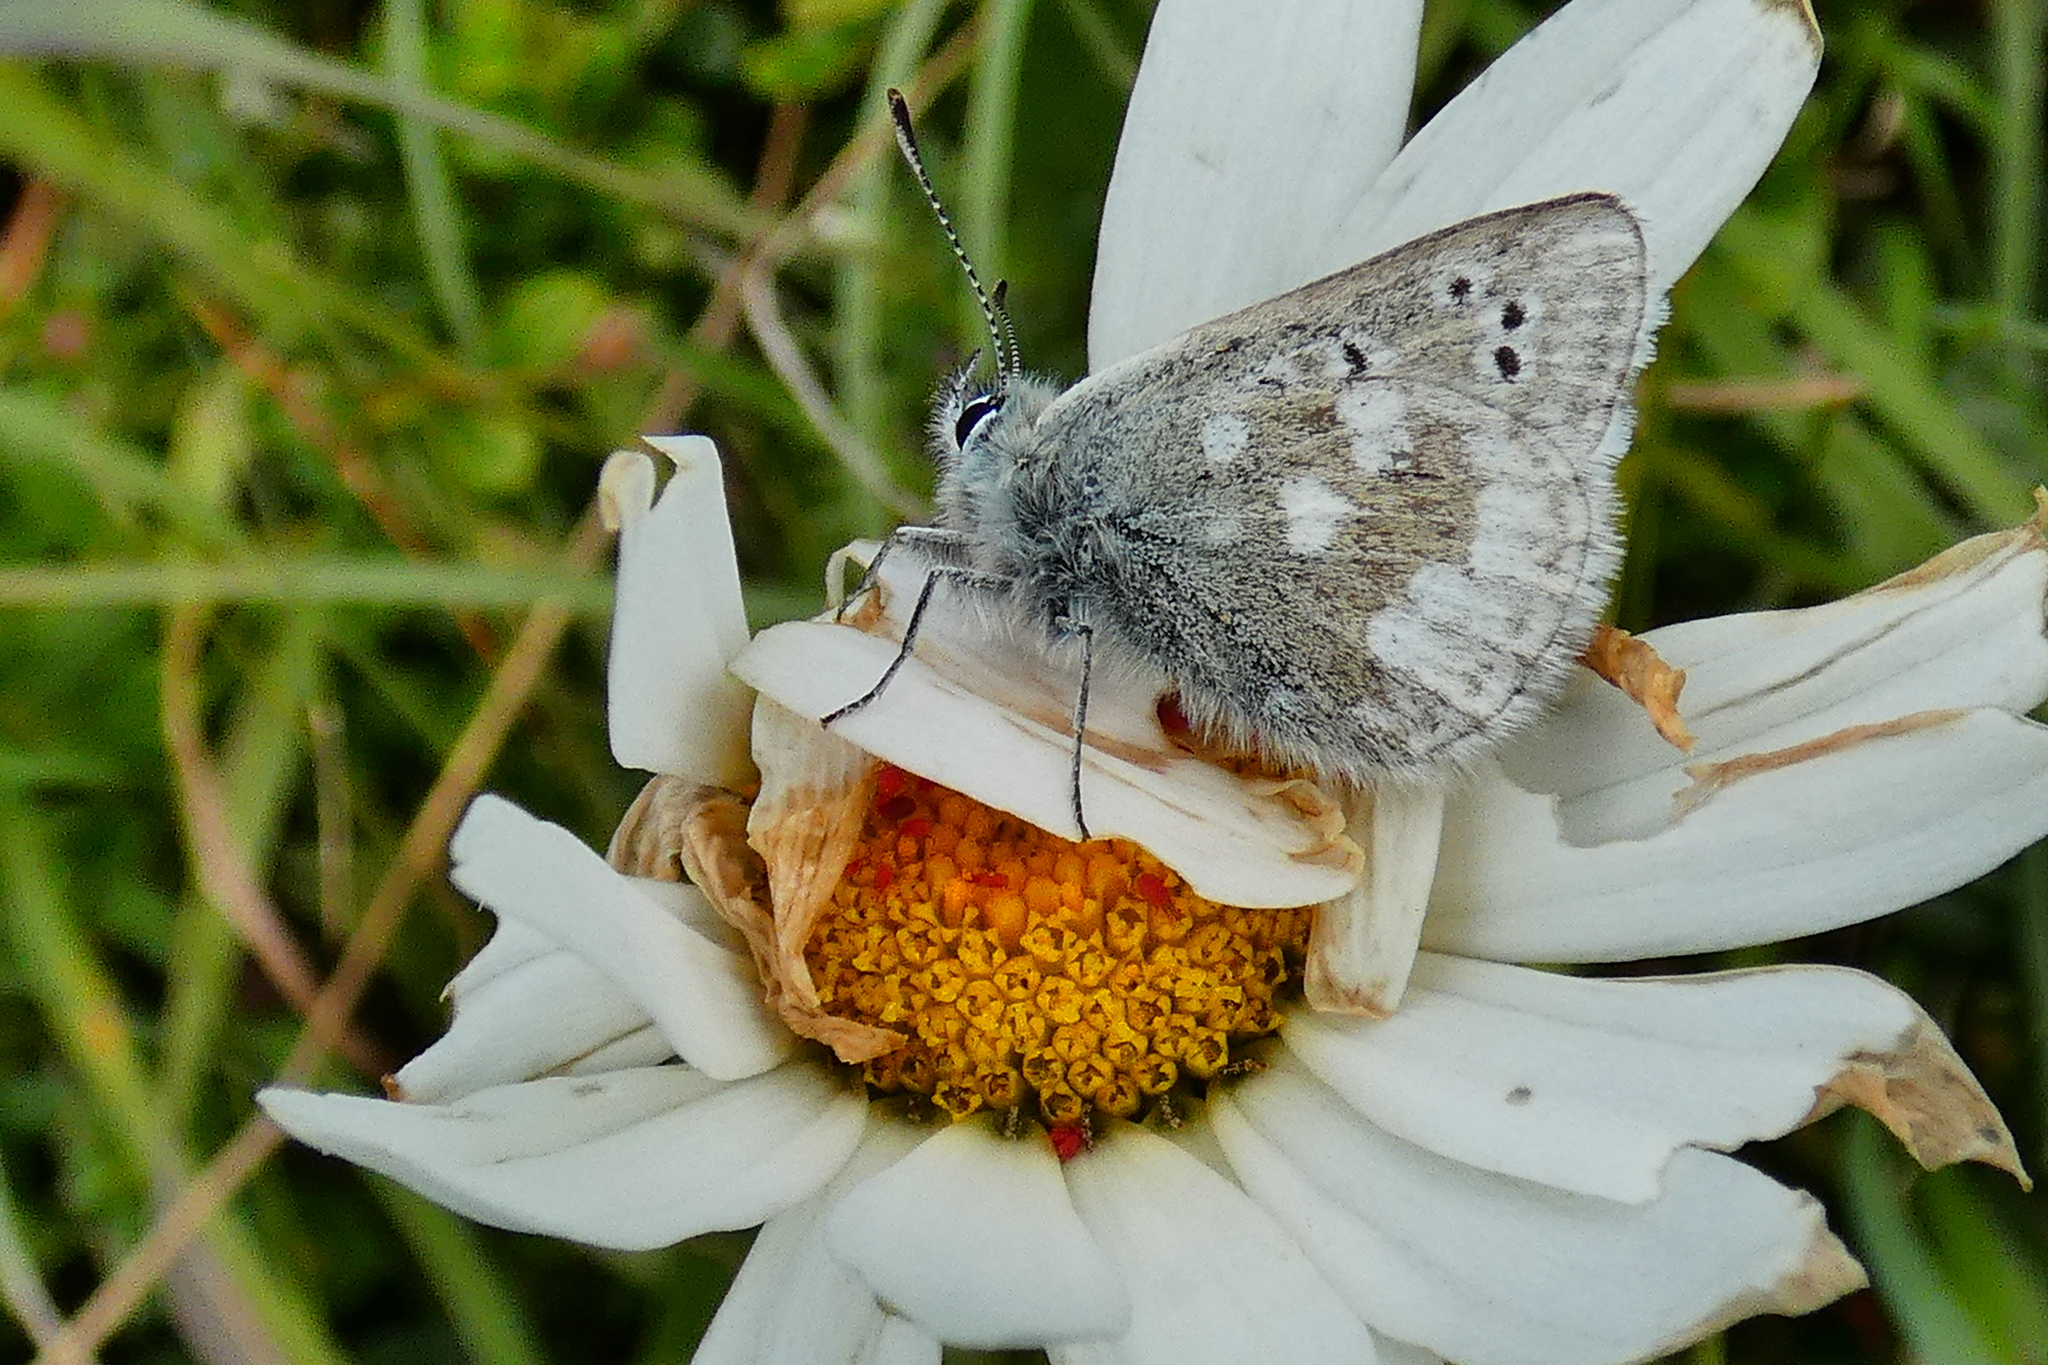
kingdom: Animalia
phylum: Arthropoda
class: Insecta
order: Lepidoptera
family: Lycaenidae
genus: Albulina
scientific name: Albulina orbitulus
